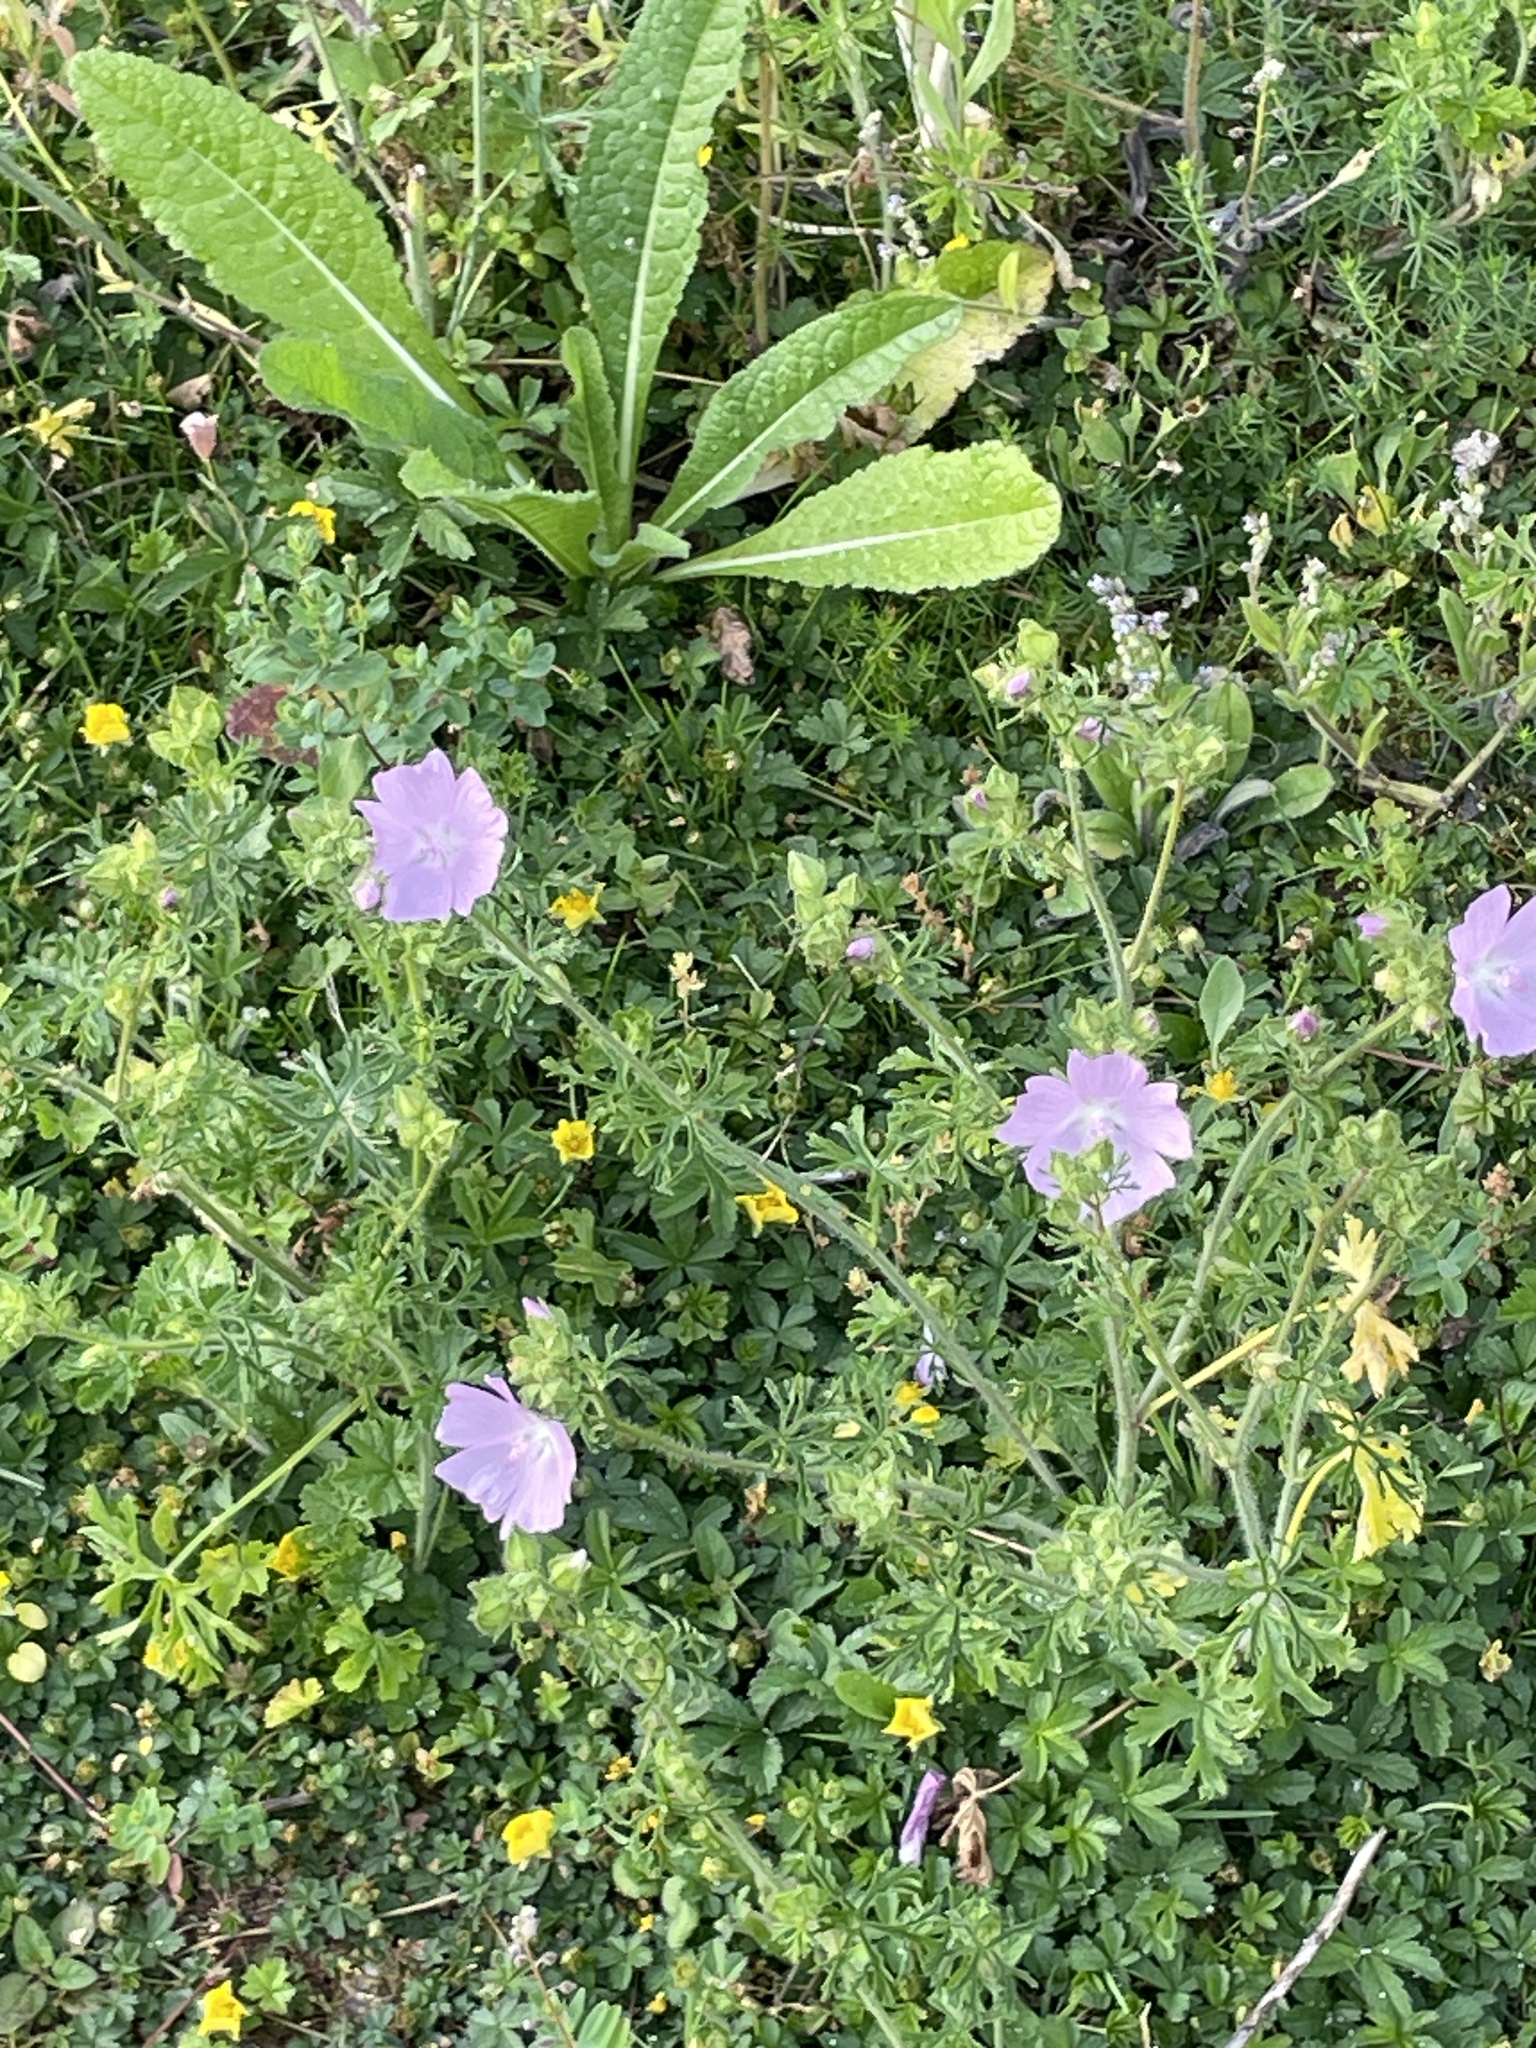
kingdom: Plantae
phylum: Tracheophyta
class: Magnoliopsida
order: Malvales
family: Malvaceae
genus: Malva
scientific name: Malva moschata
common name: Musk mallow
